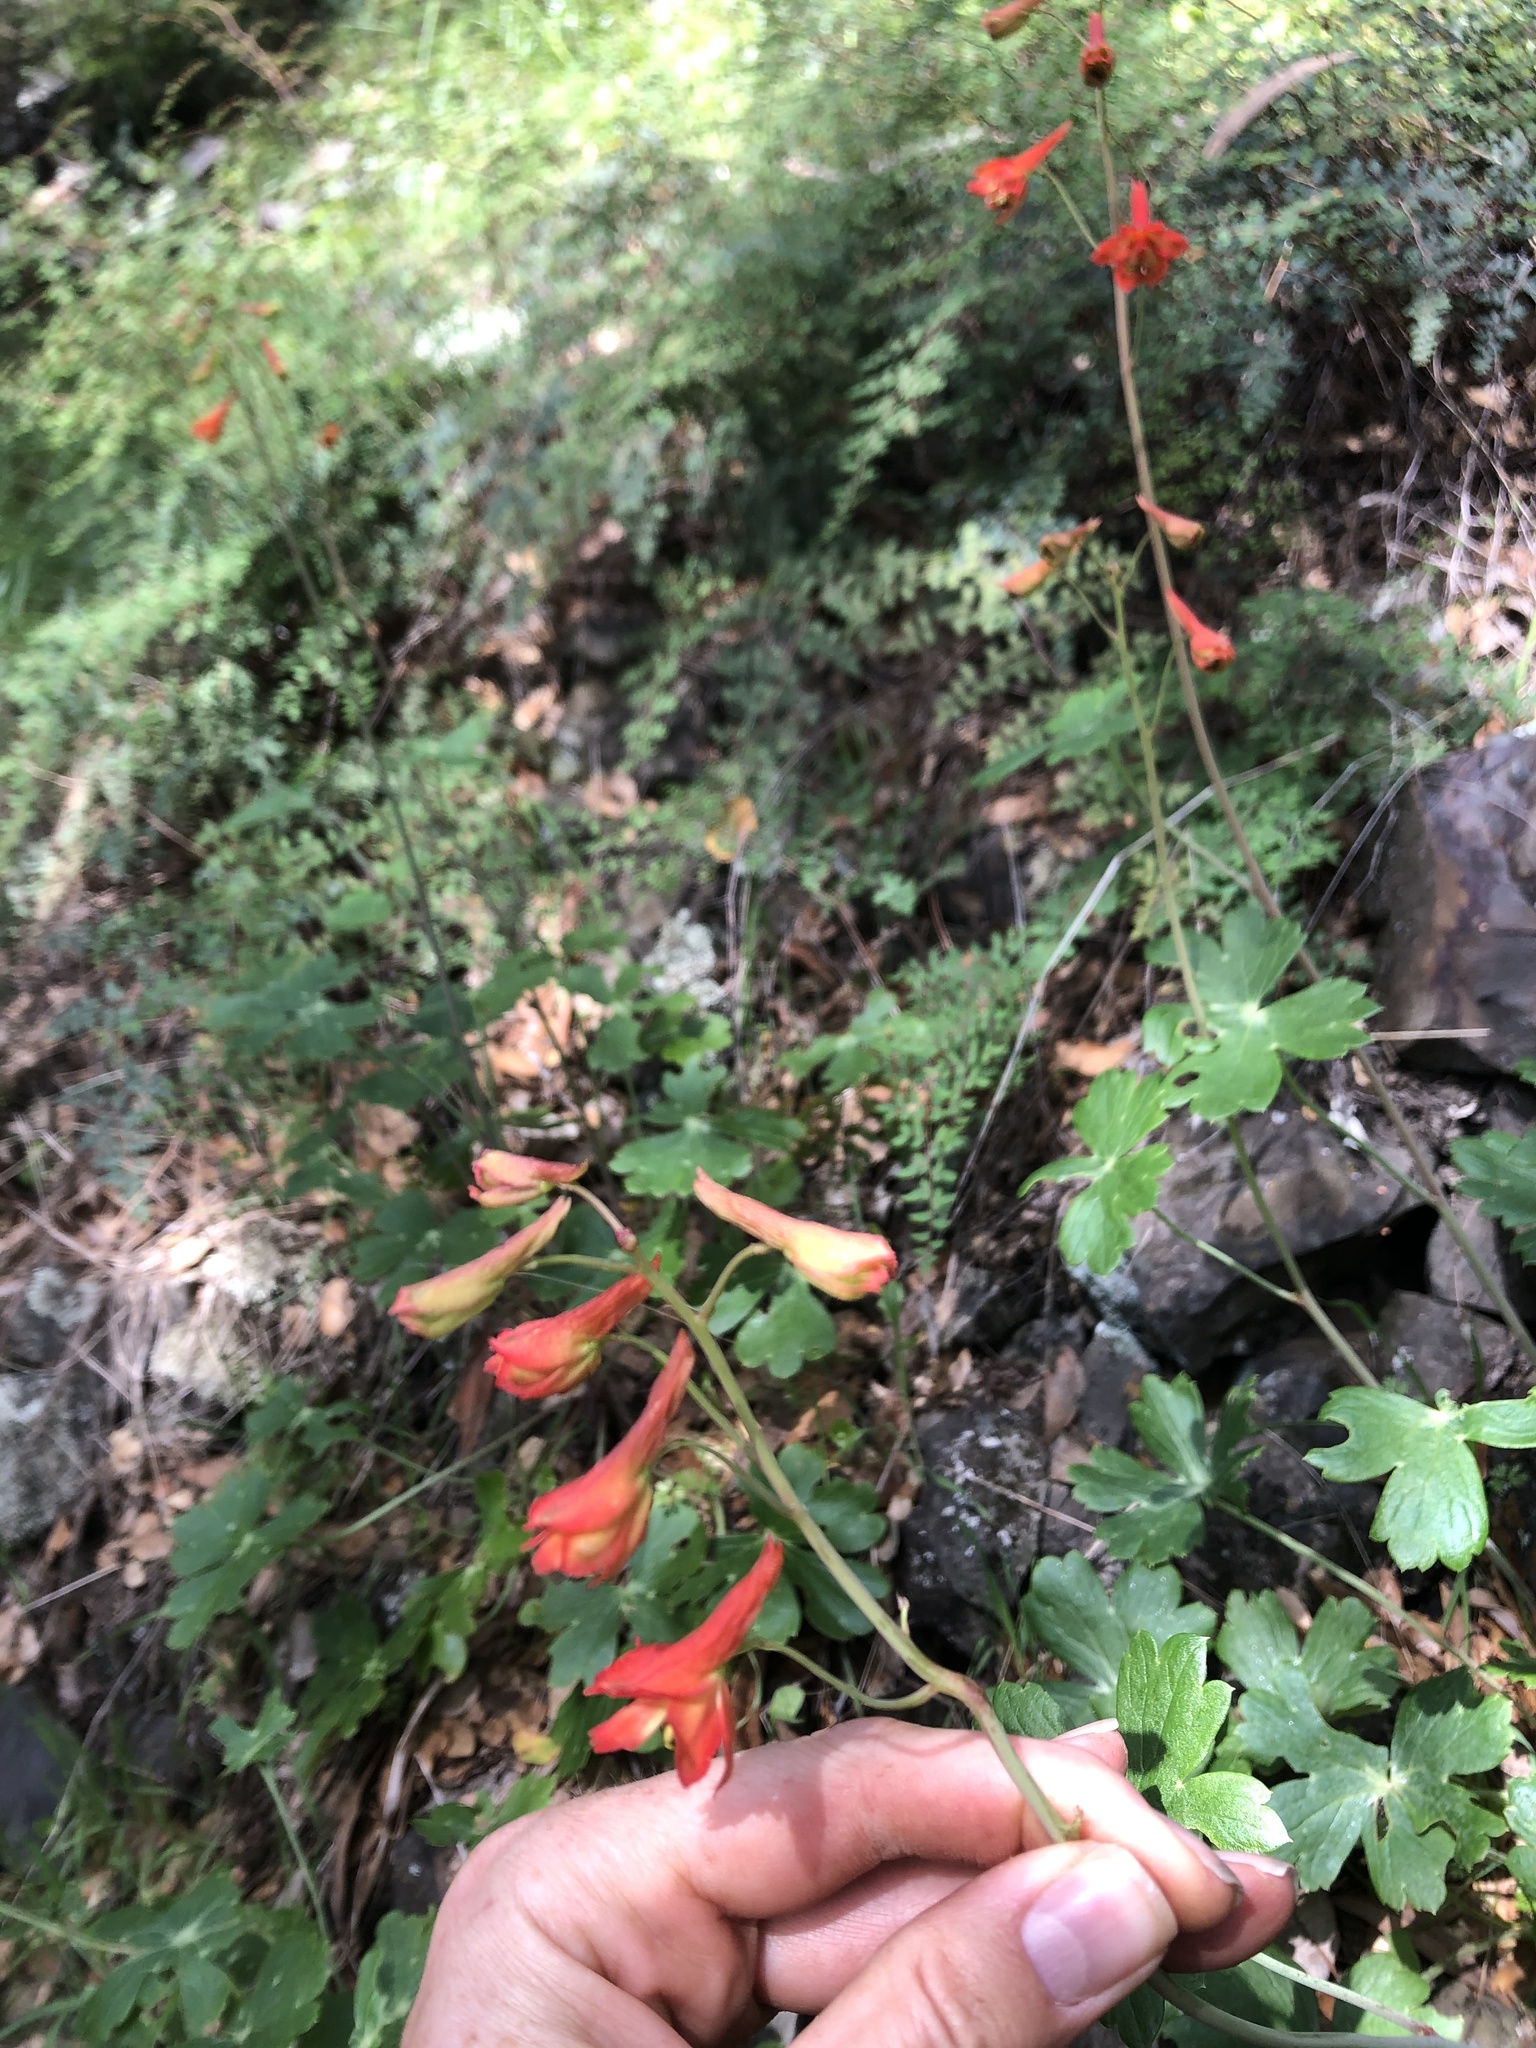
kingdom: Plantae
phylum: Tracheophyta
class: Magnoliopsida
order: Ranunculales
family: Ranunculaceae
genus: Delphinium
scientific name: Delphinium nudicaule
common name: Red larkspur
